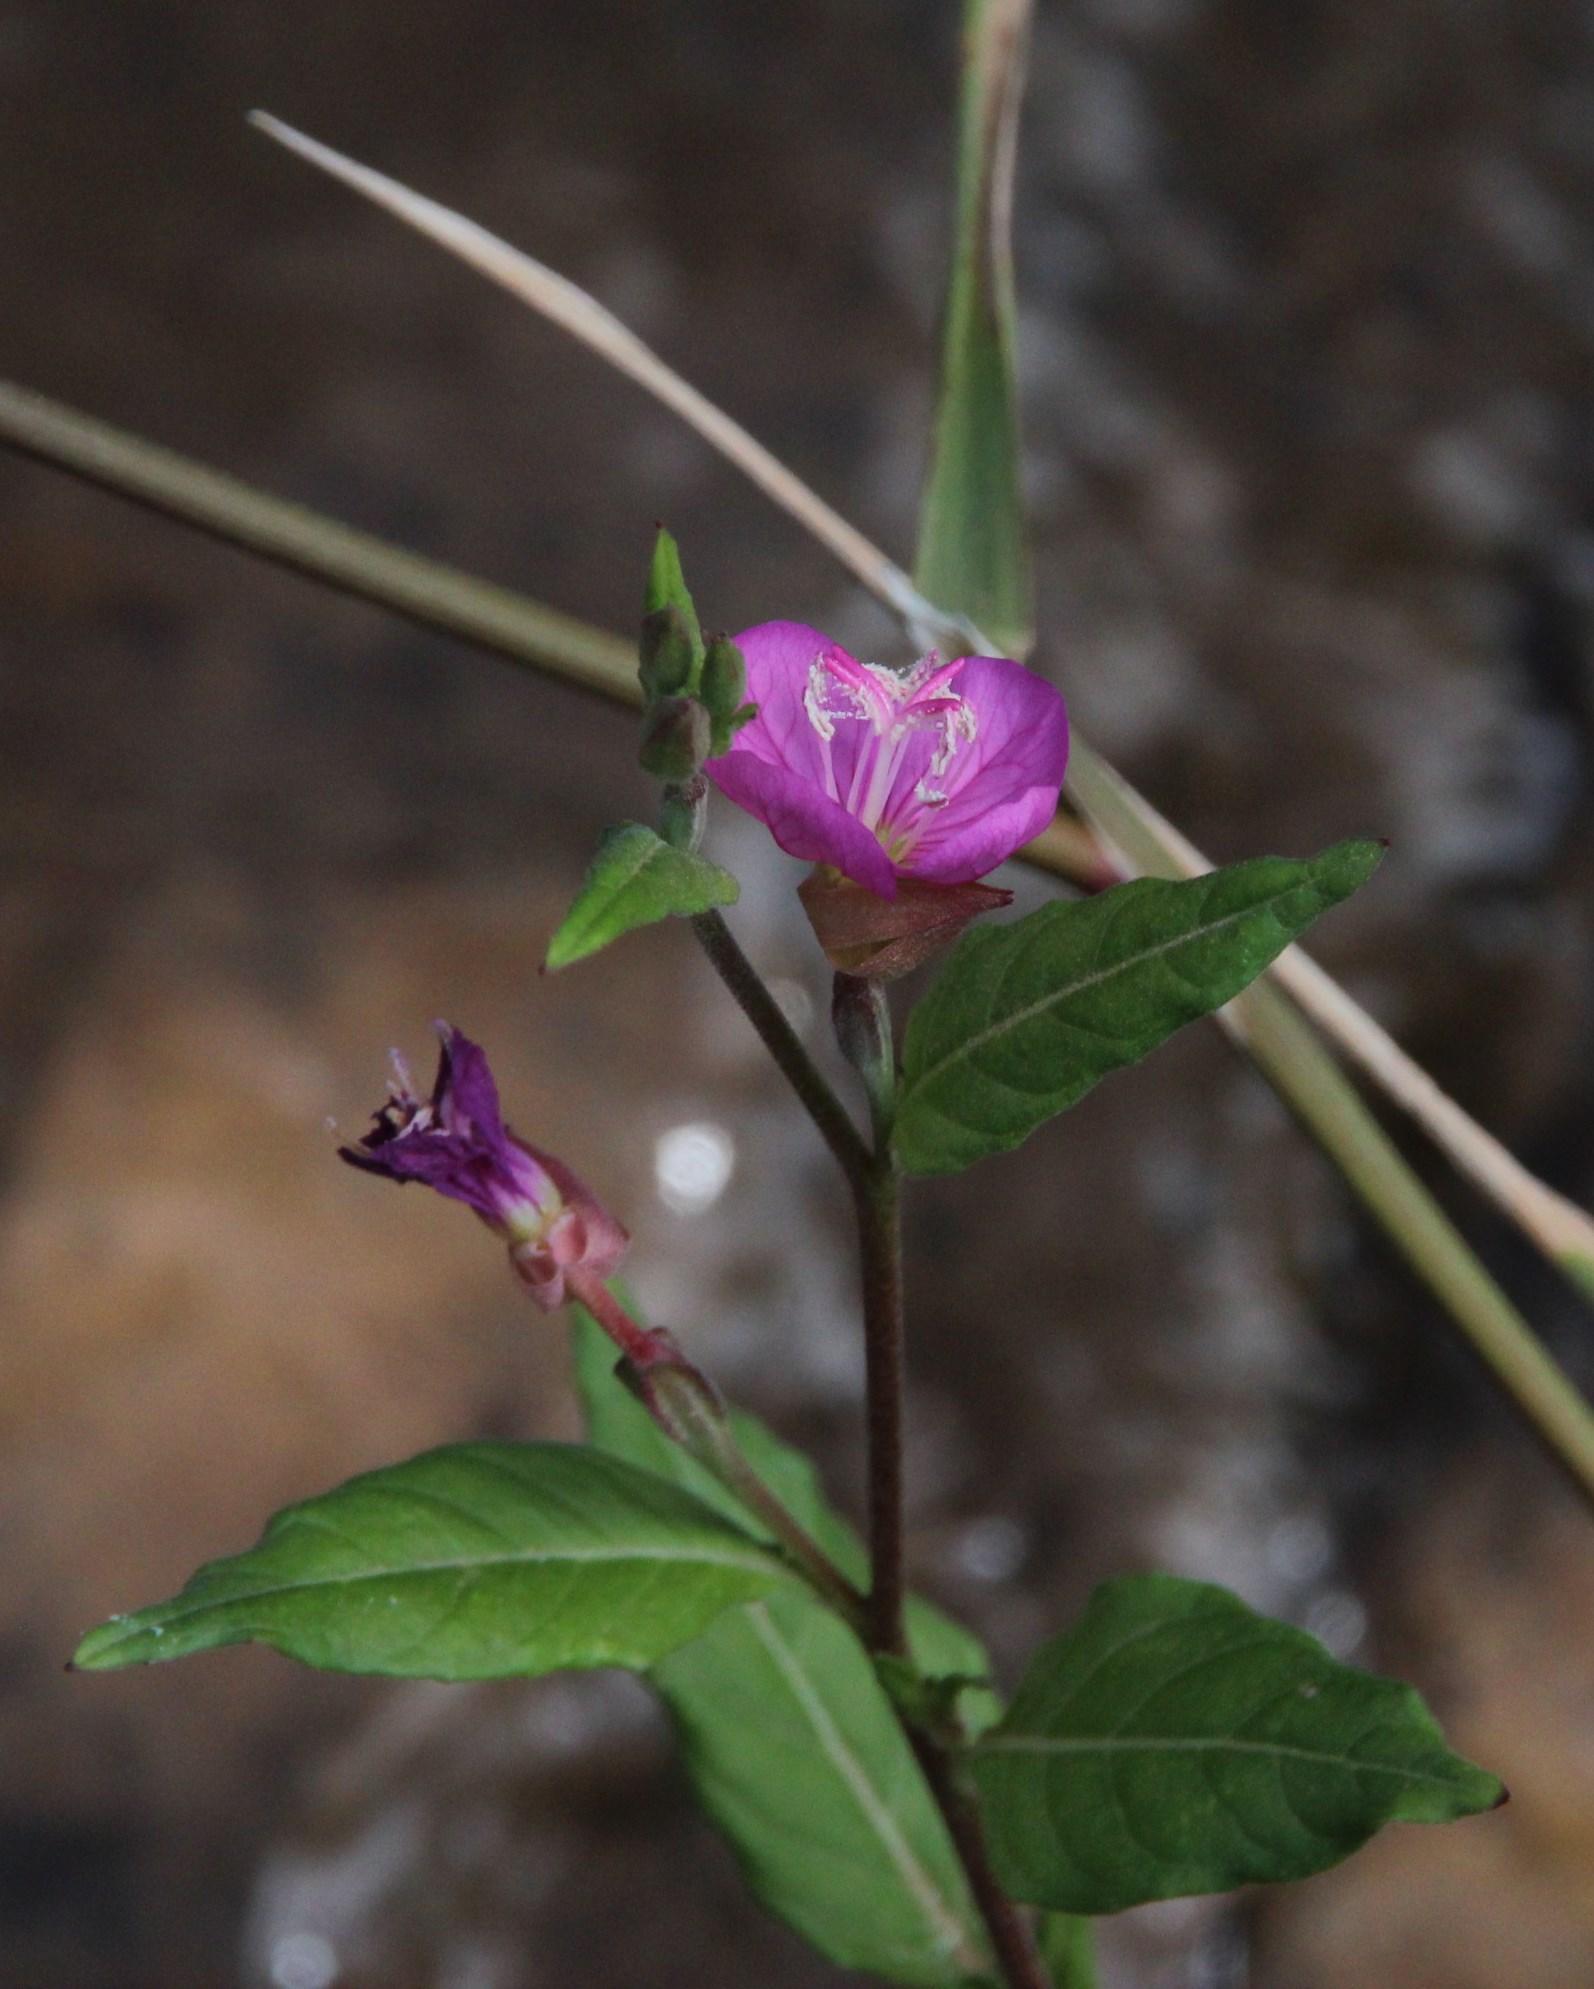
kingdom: Plantae
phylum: Tracheophyta
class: Magnoliopsida
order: Myrtales
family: Onagraceae
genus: Oenothera
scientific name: Oenothera rosea
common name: Rosy evening-primrose
